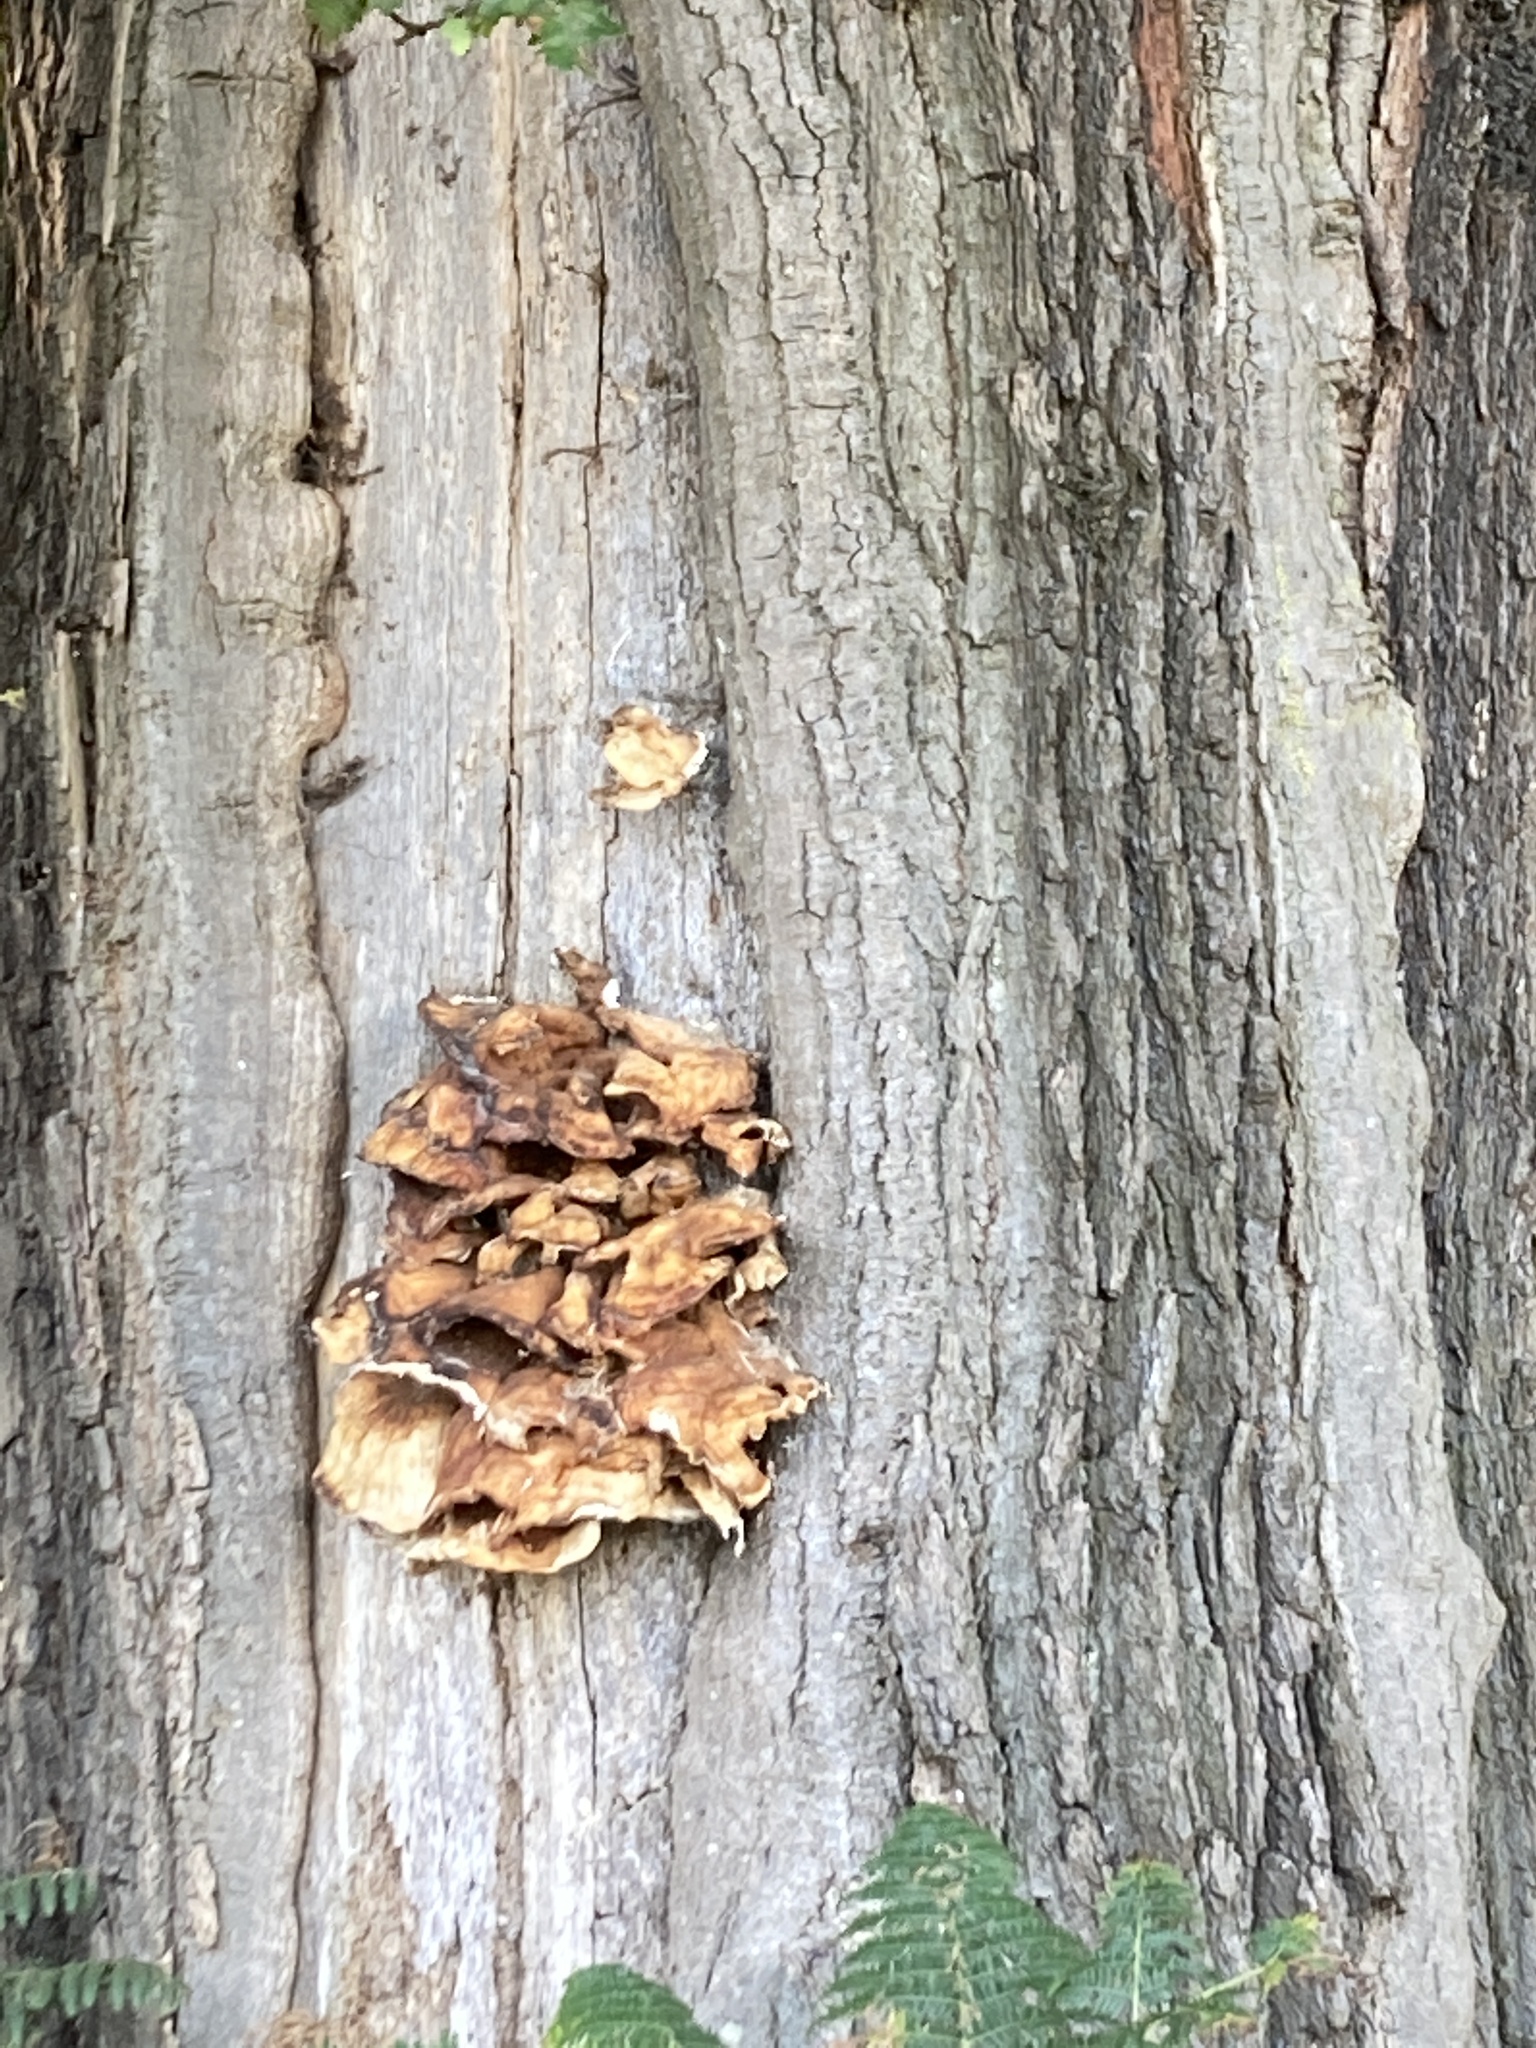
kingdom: Fungi
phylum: Basidiomycota
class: Agaricomycetes
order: Polyporales
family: Laetiporaceae
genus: Laetiporus
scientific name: Laetiporus sulphureus
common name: Chicken of the woods
